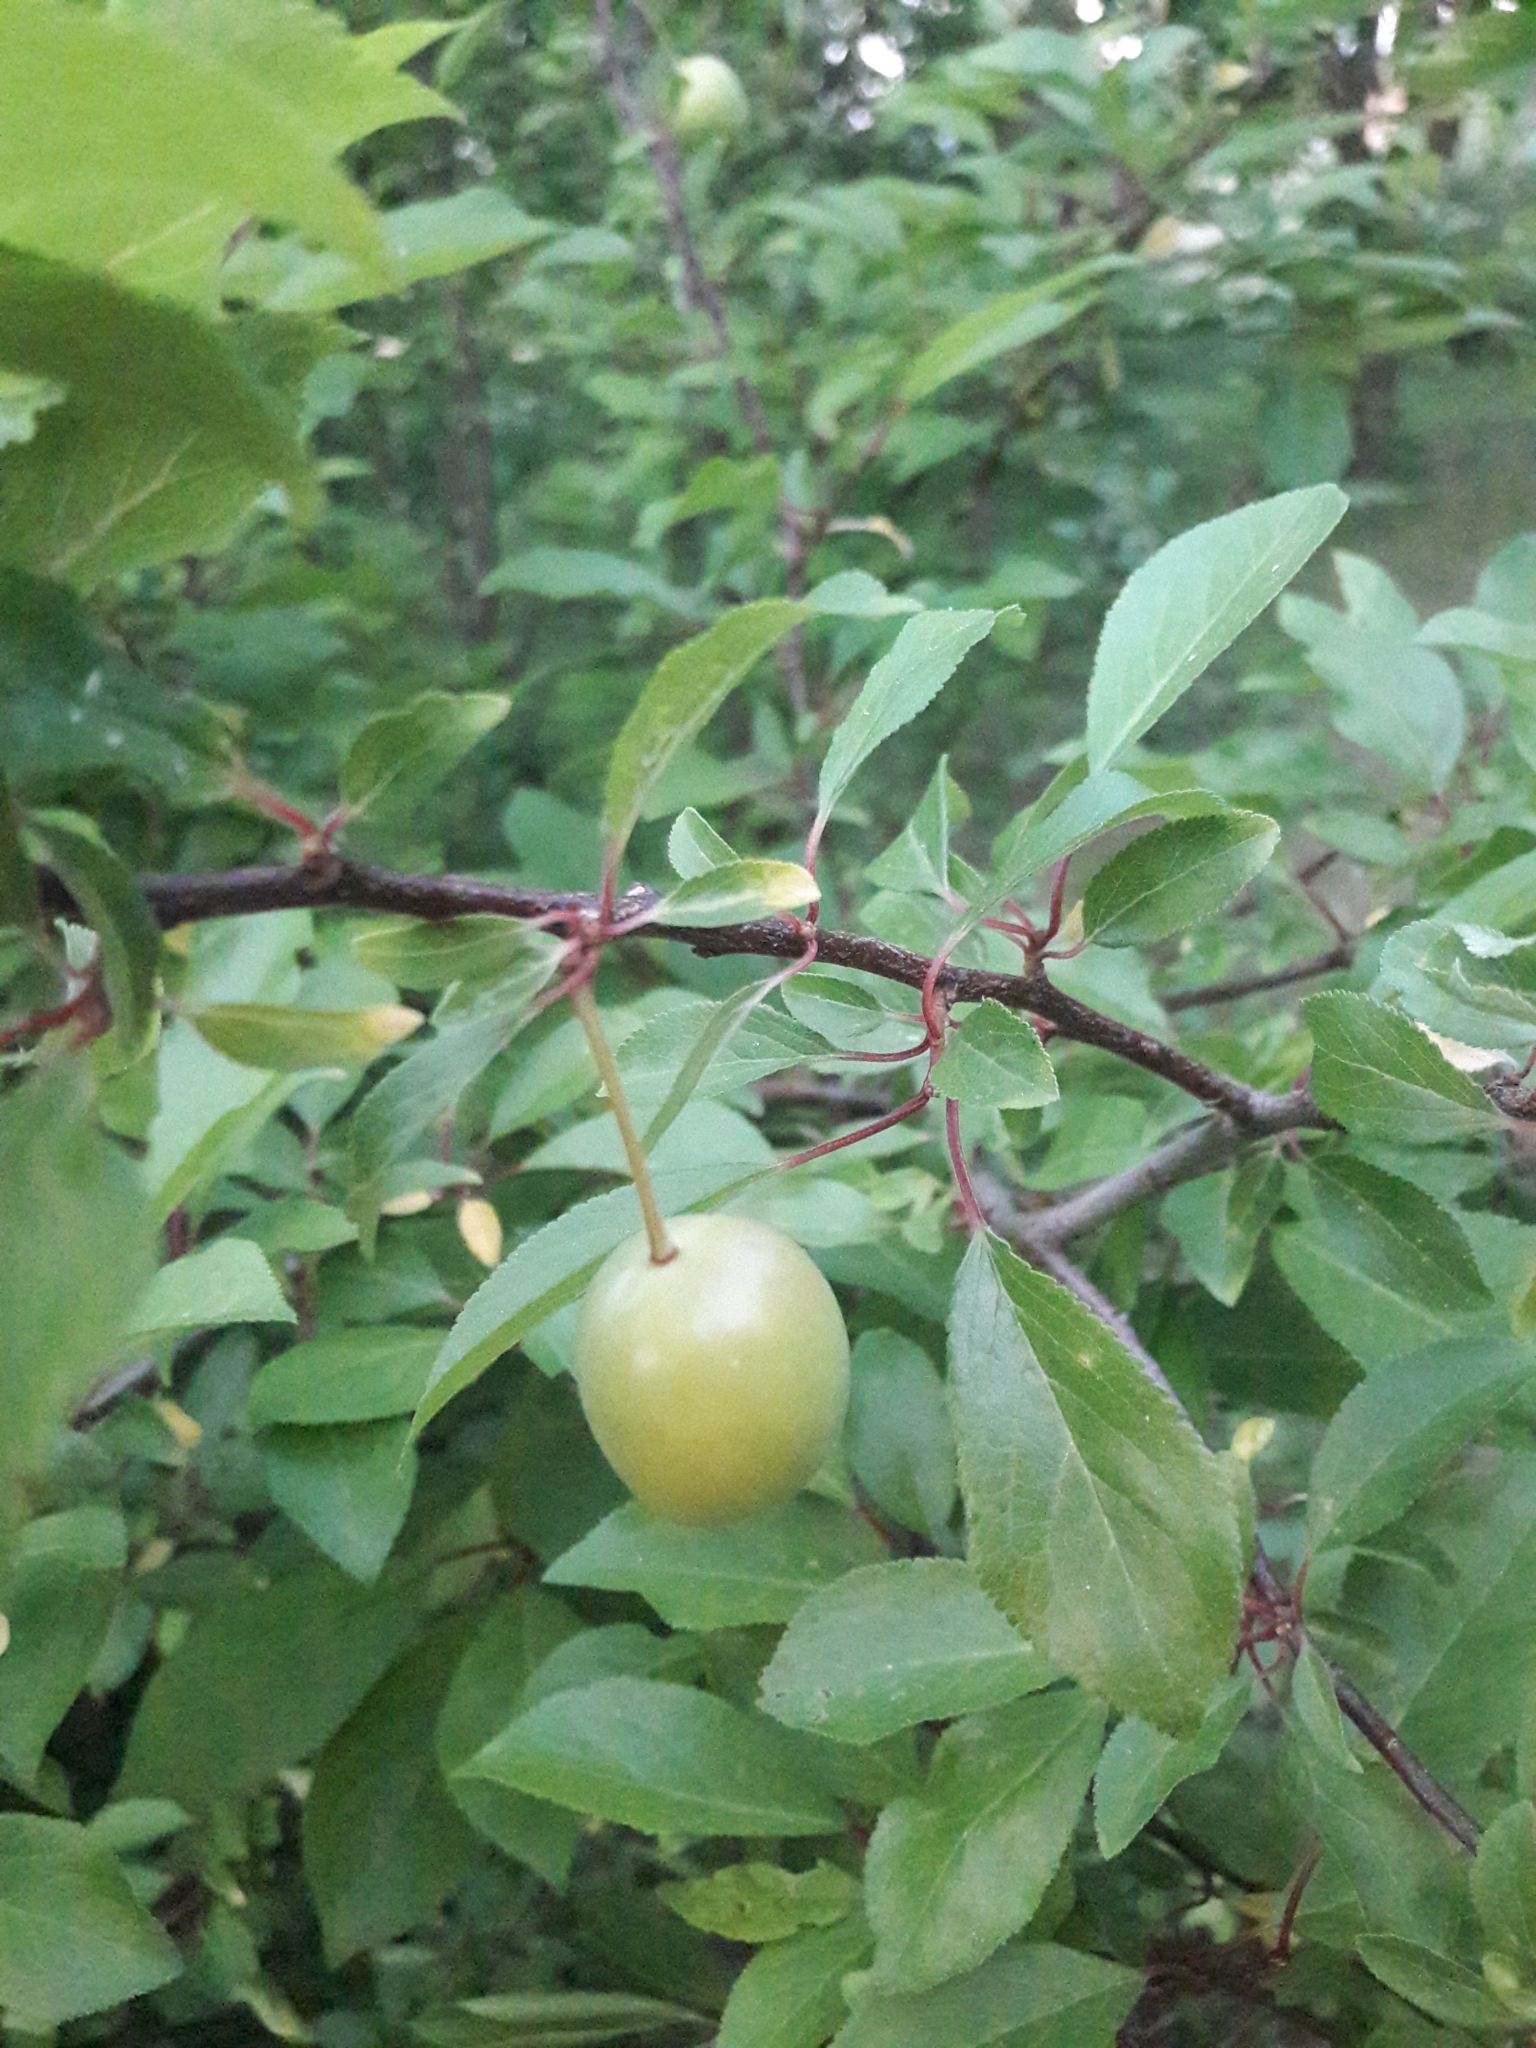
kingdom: Plantae
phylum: Tracheophyta
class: Magnoliopsida
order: Rosales
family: Rosaceae
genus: Prunus
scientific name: Prunus cerasifera
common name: Cherry plum
